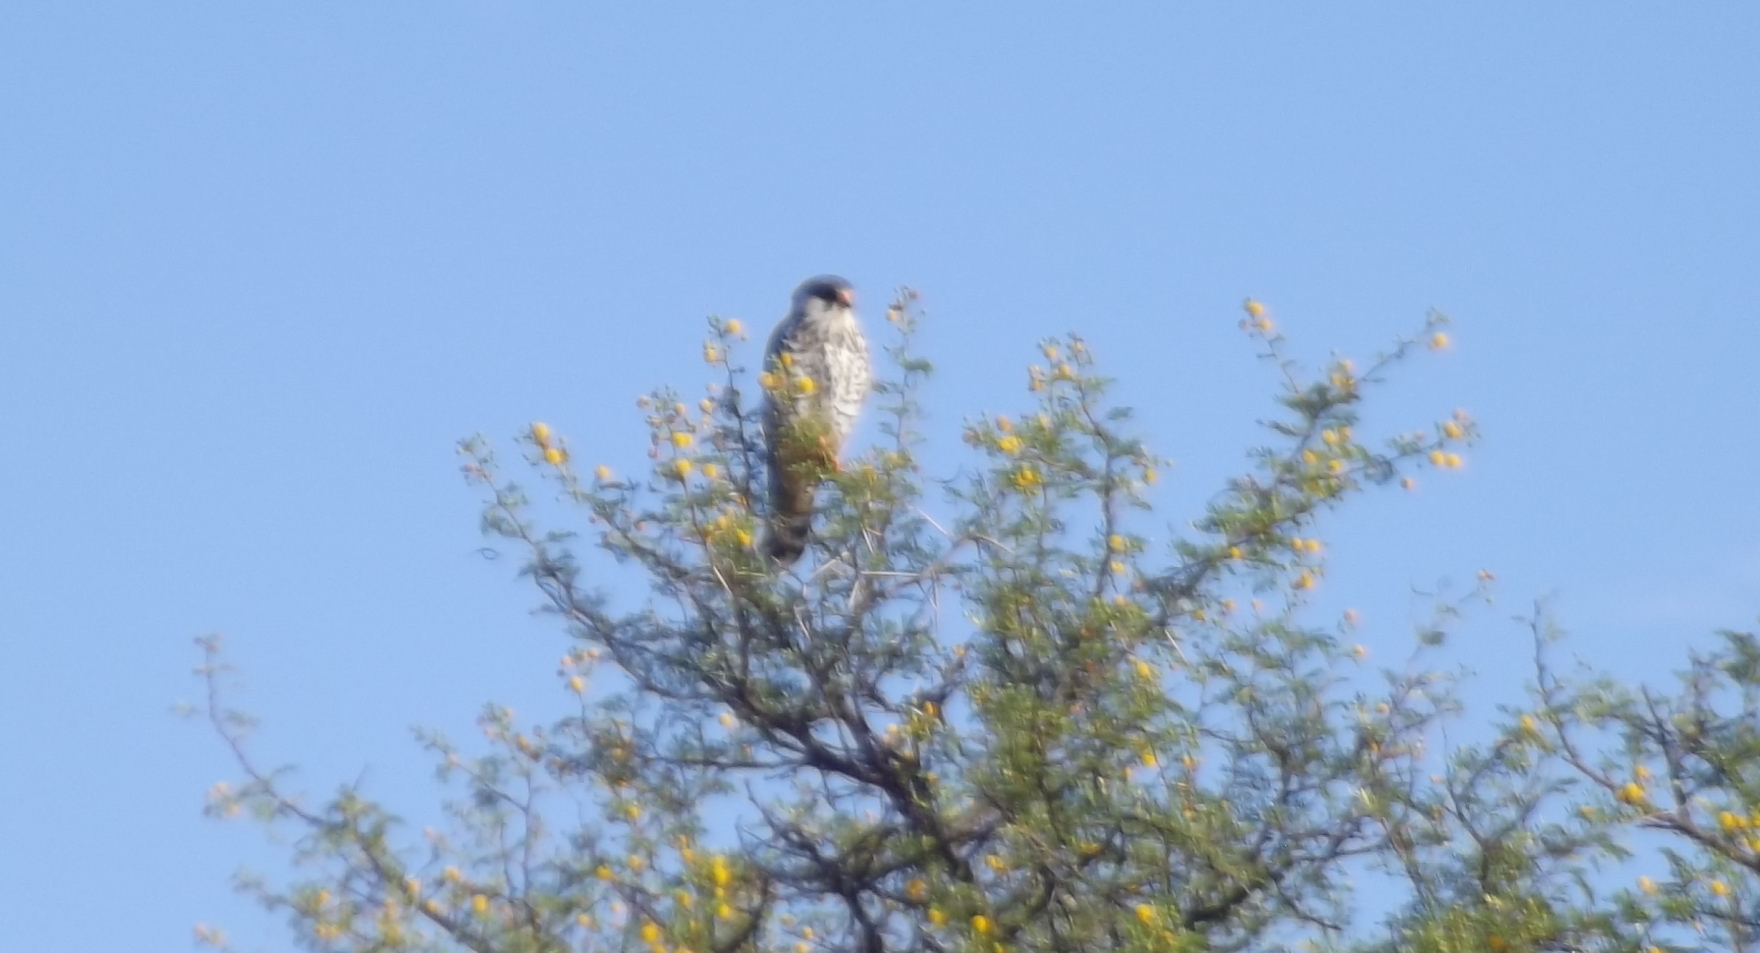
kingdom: Animalia
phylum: Chordata
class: Aves
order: Falconiformes
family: Falconidae
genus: Falco
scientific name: Falco amurensis
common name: Amur falcon
